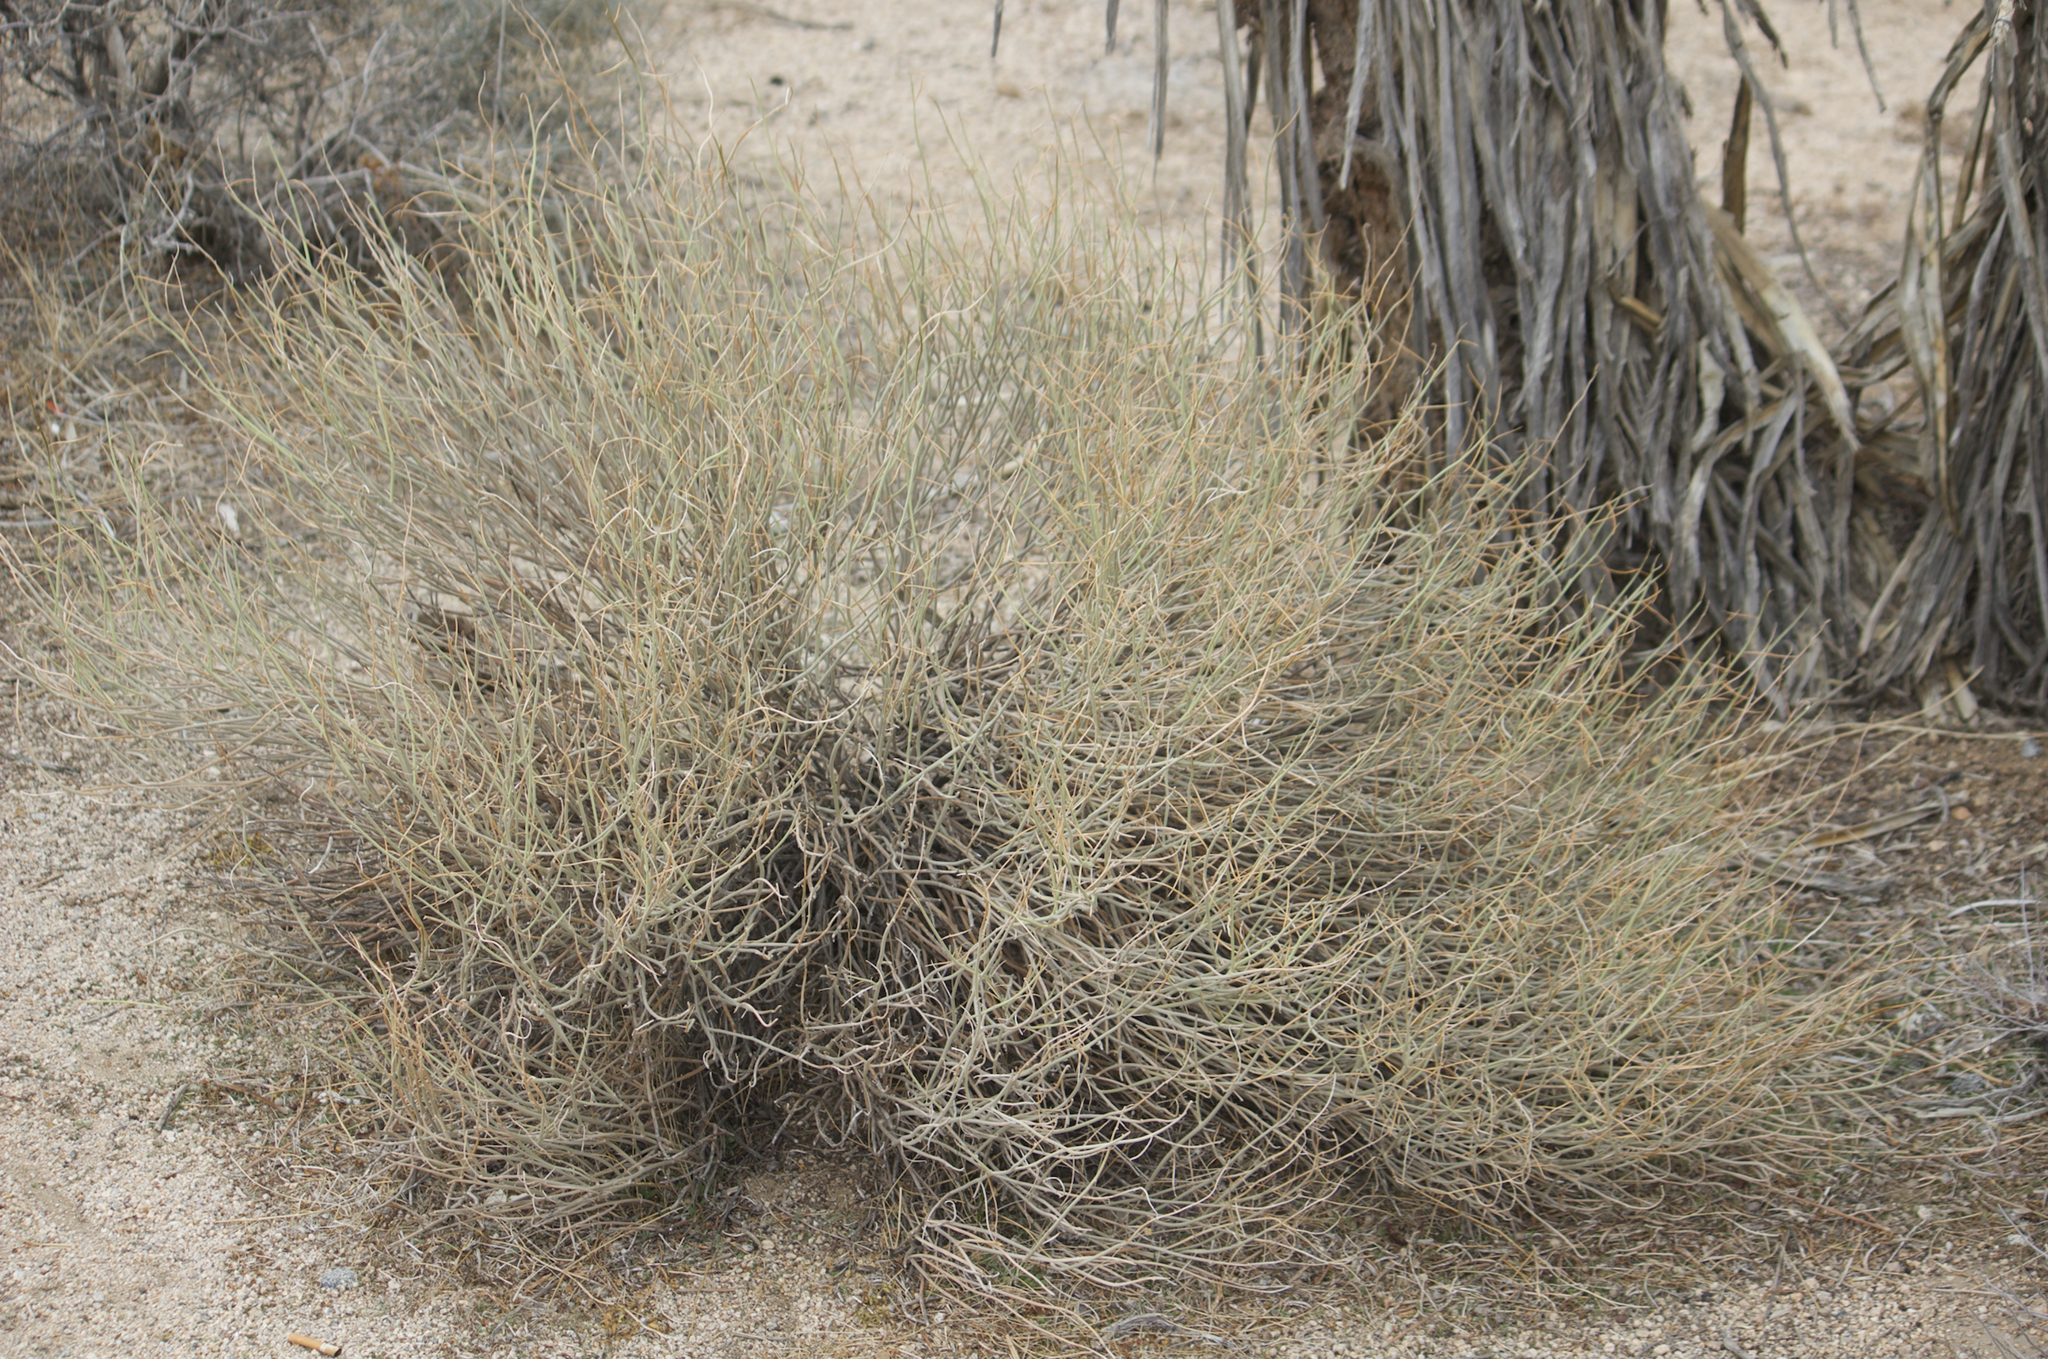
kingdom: Plantae
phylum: Tracheophyta
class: Magnoliopsida
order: Fabales
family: Fabaceae
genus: Senna
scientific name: Senna armata
